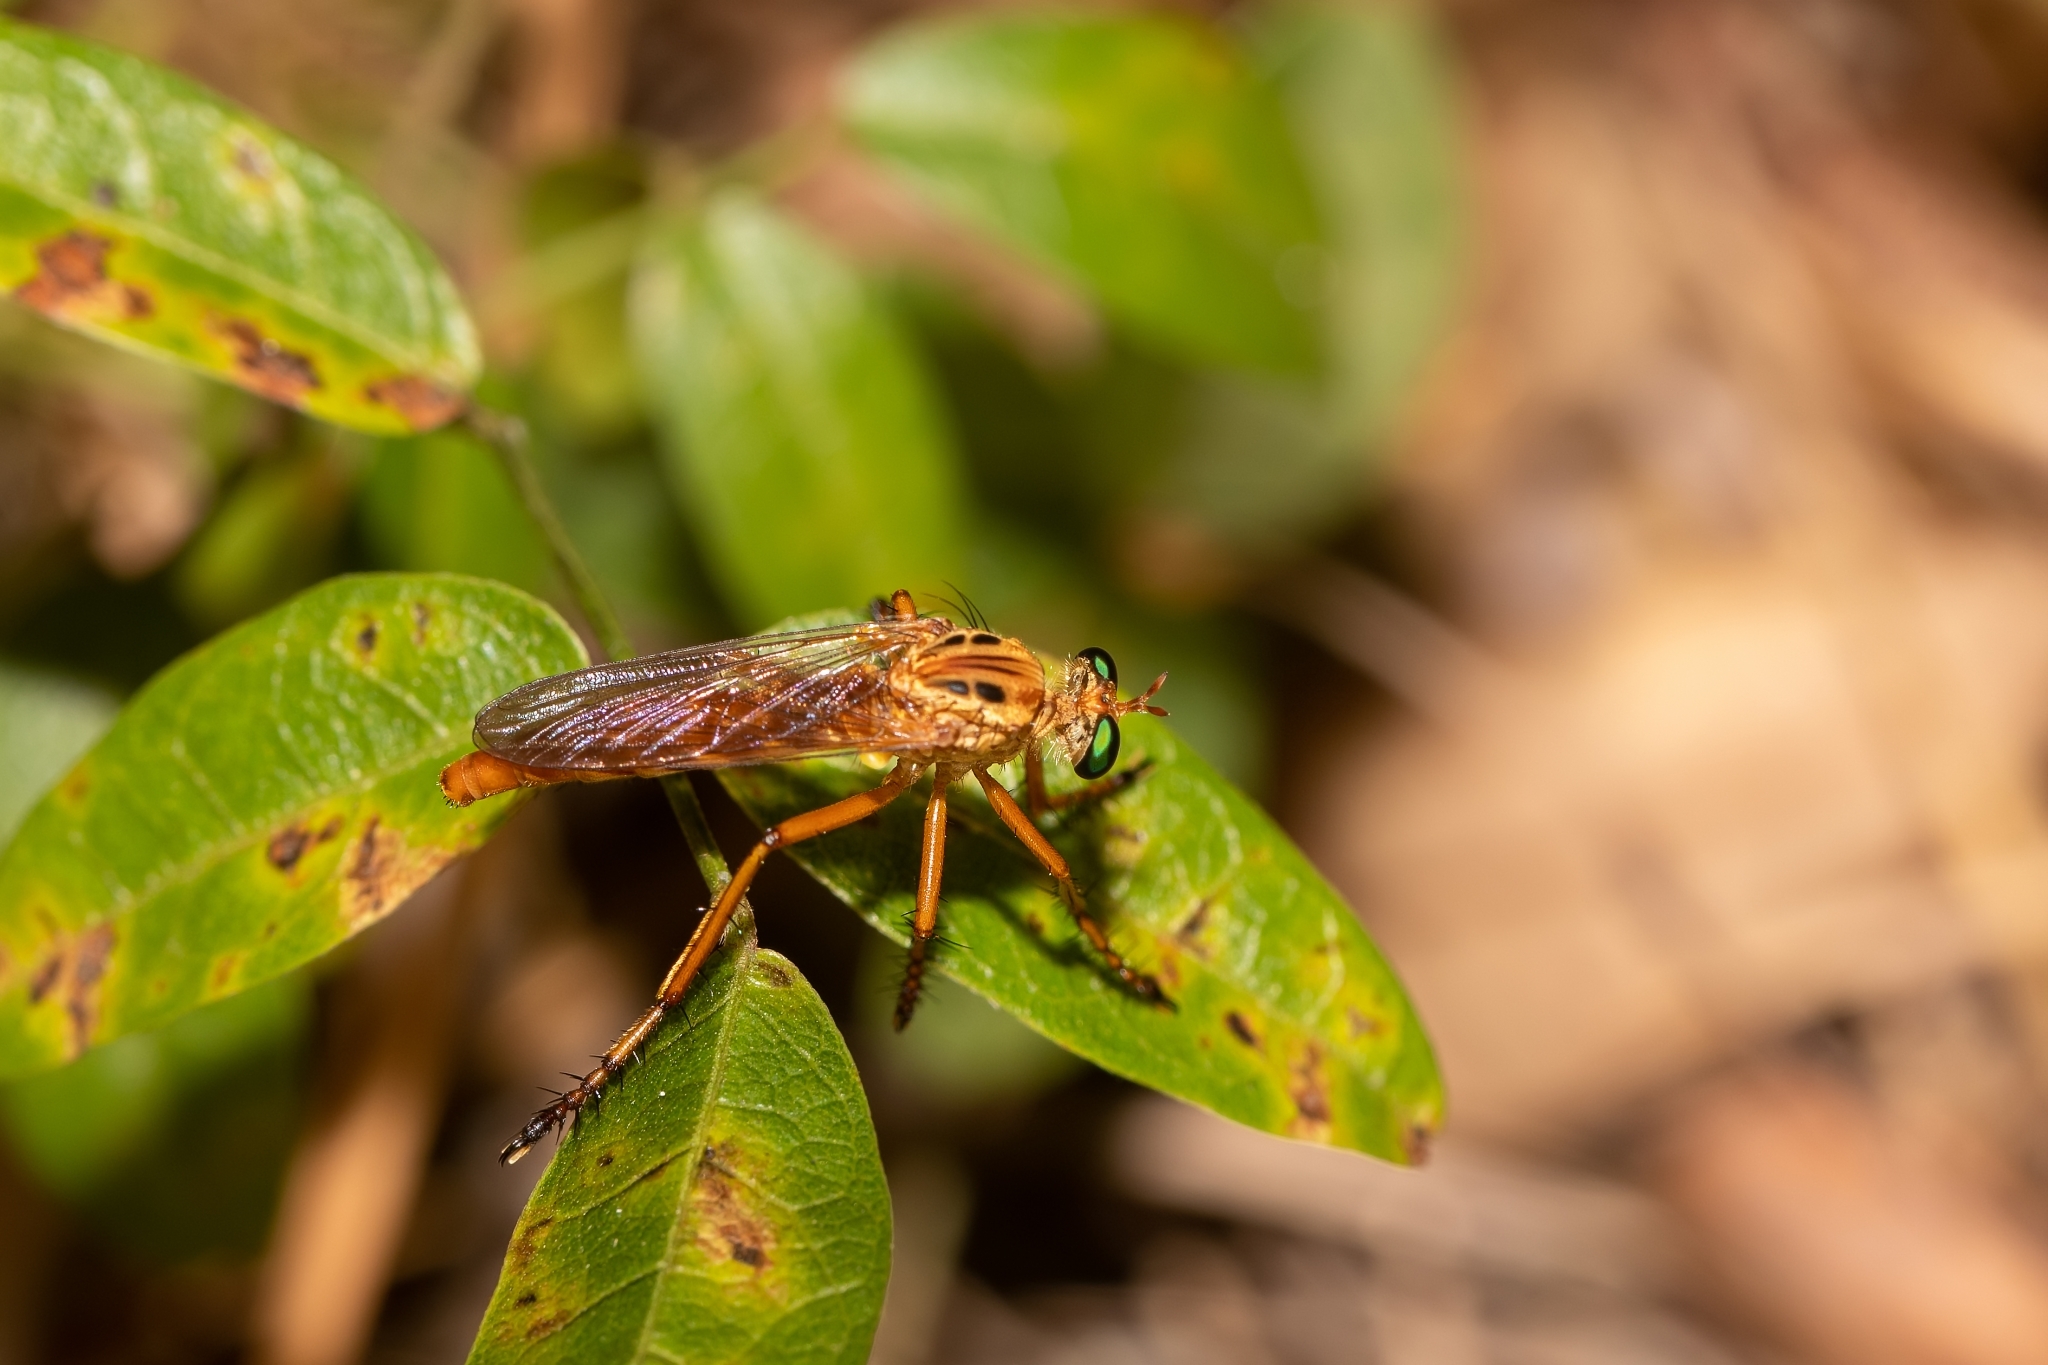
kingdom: Animalia
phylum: Arthropoda
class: Insecta
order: Diptera
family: Asilidae
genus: Diogmites
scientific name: Diogmites esuriens
